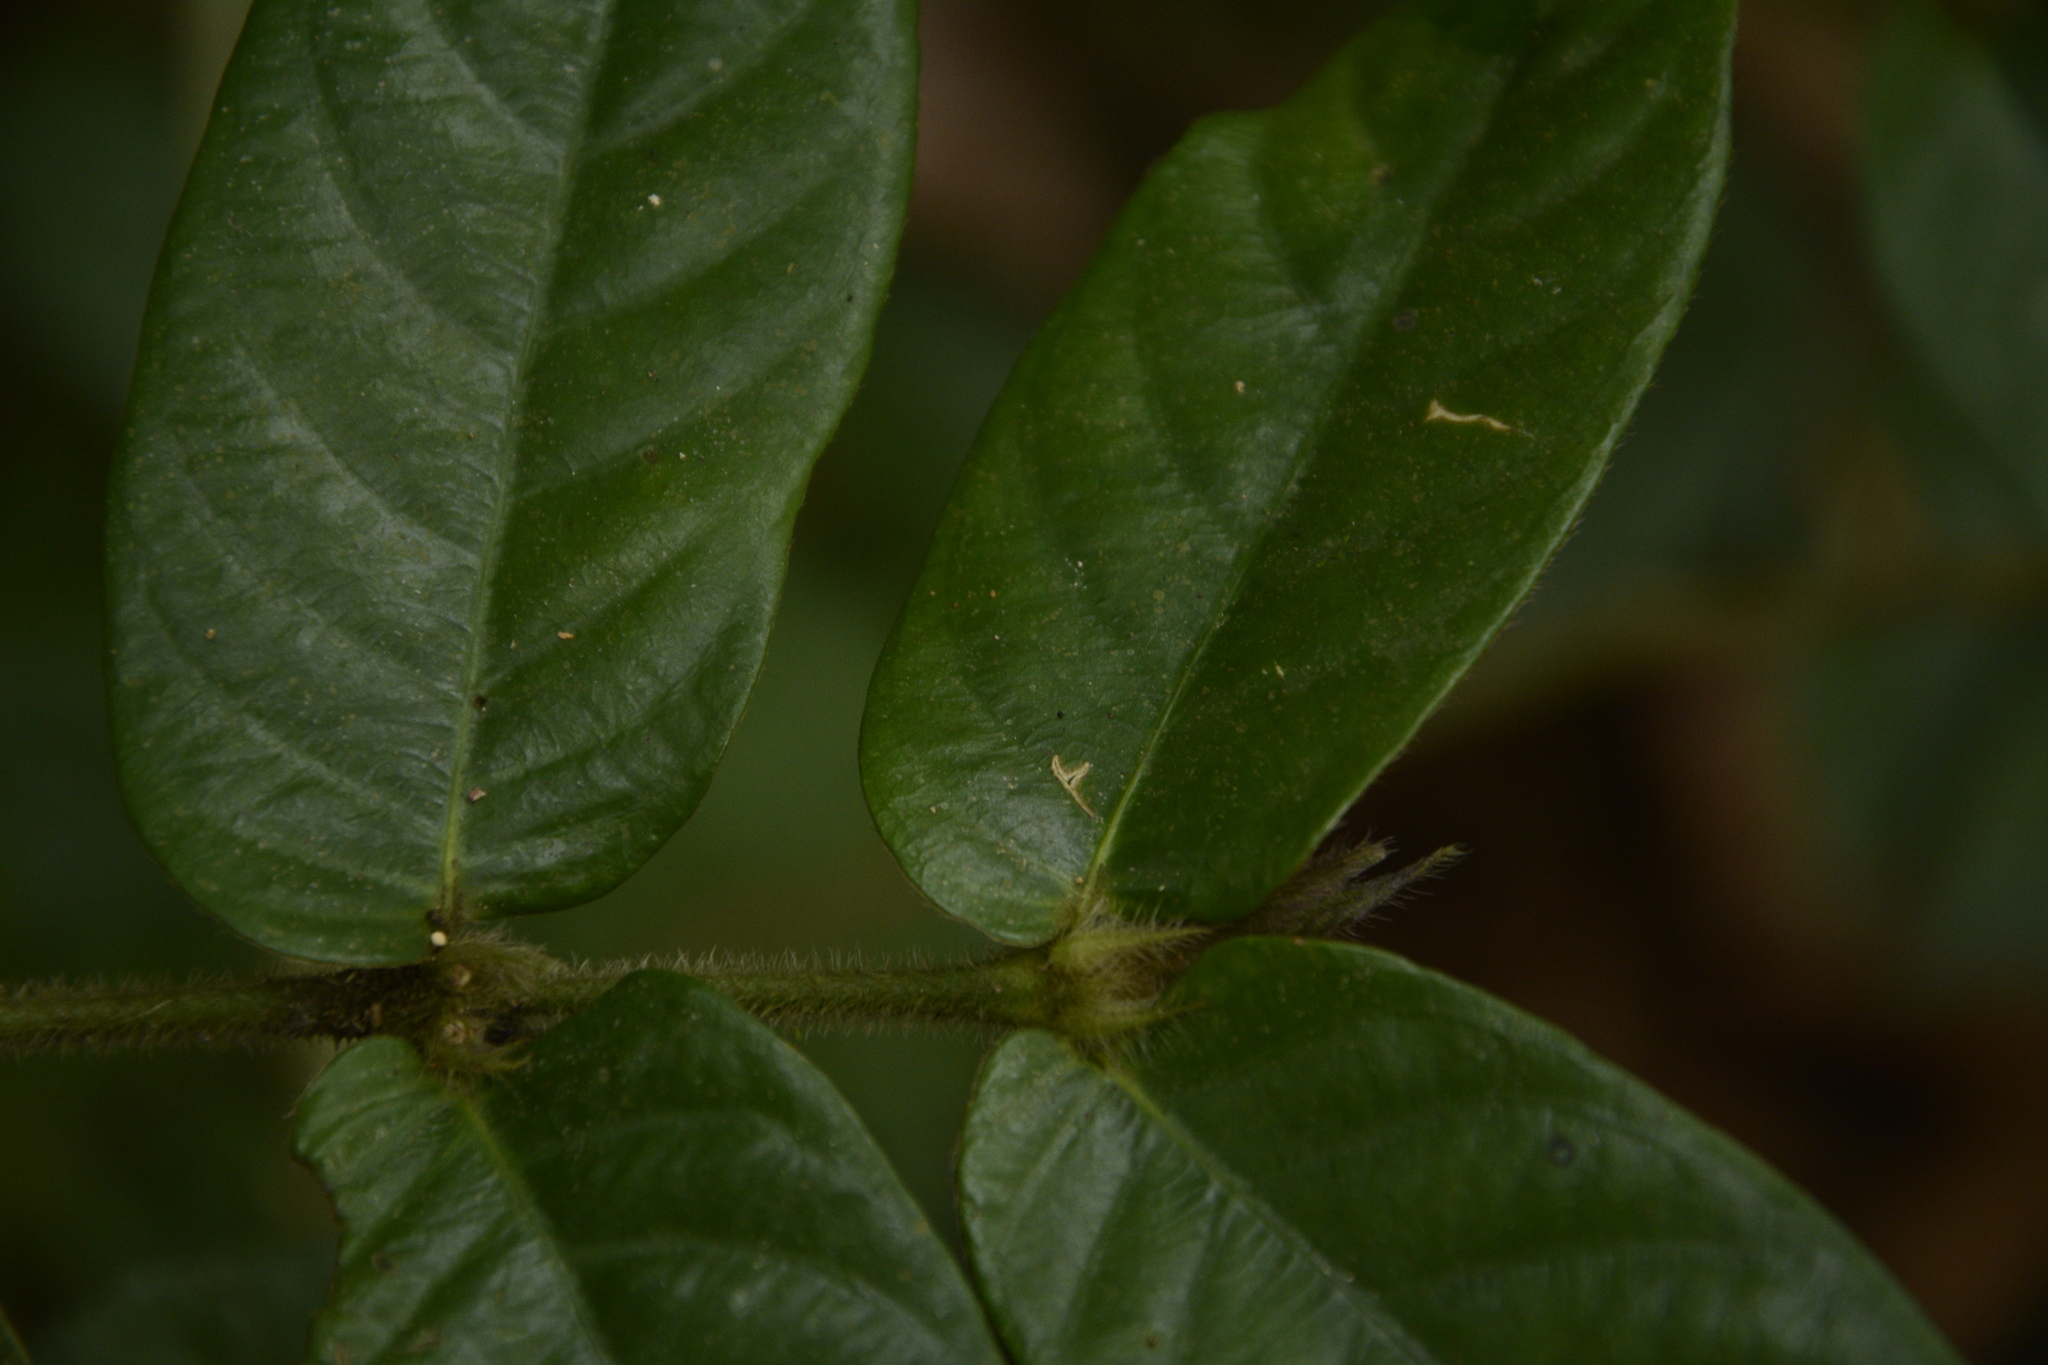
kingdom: Plantae
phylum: Tracheophyta
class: Magnoliopsida
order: Gentianales
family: Rubiaceae
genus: Lasianthus
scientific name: Lasianthus attenuatus
